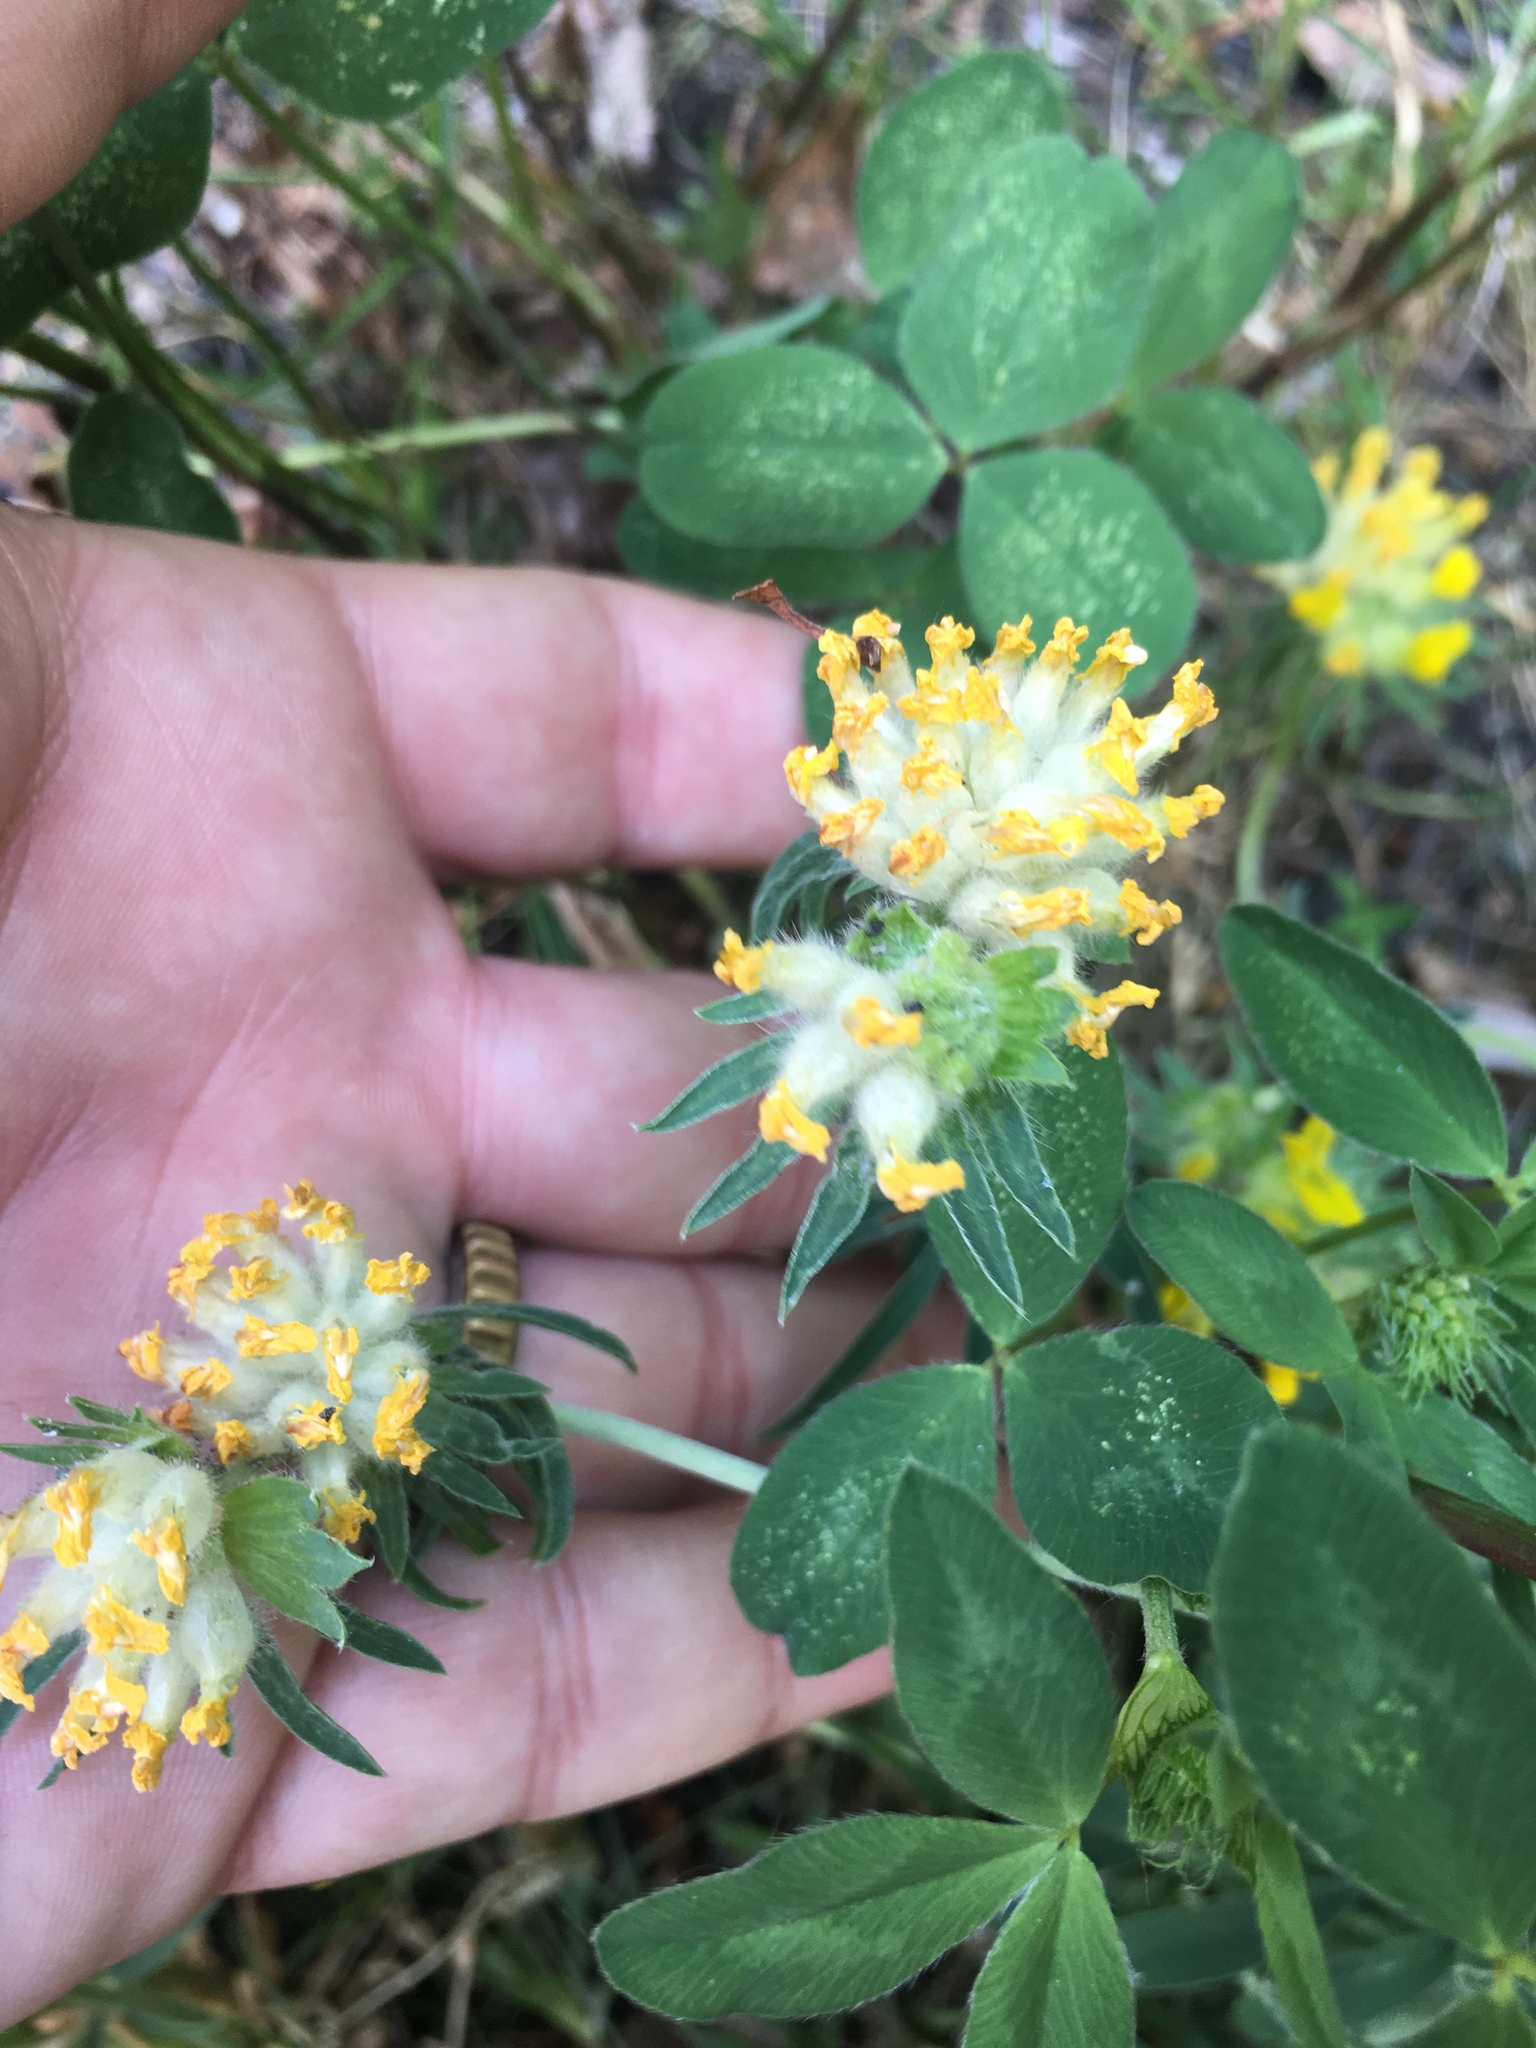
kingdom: Plantae
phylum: Tracheophyta
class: Magnoliopsida
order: Fabales
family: Fabaceae
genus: Anthyllis
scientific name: Anthyllis vulneraria
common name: Kidney vetch
